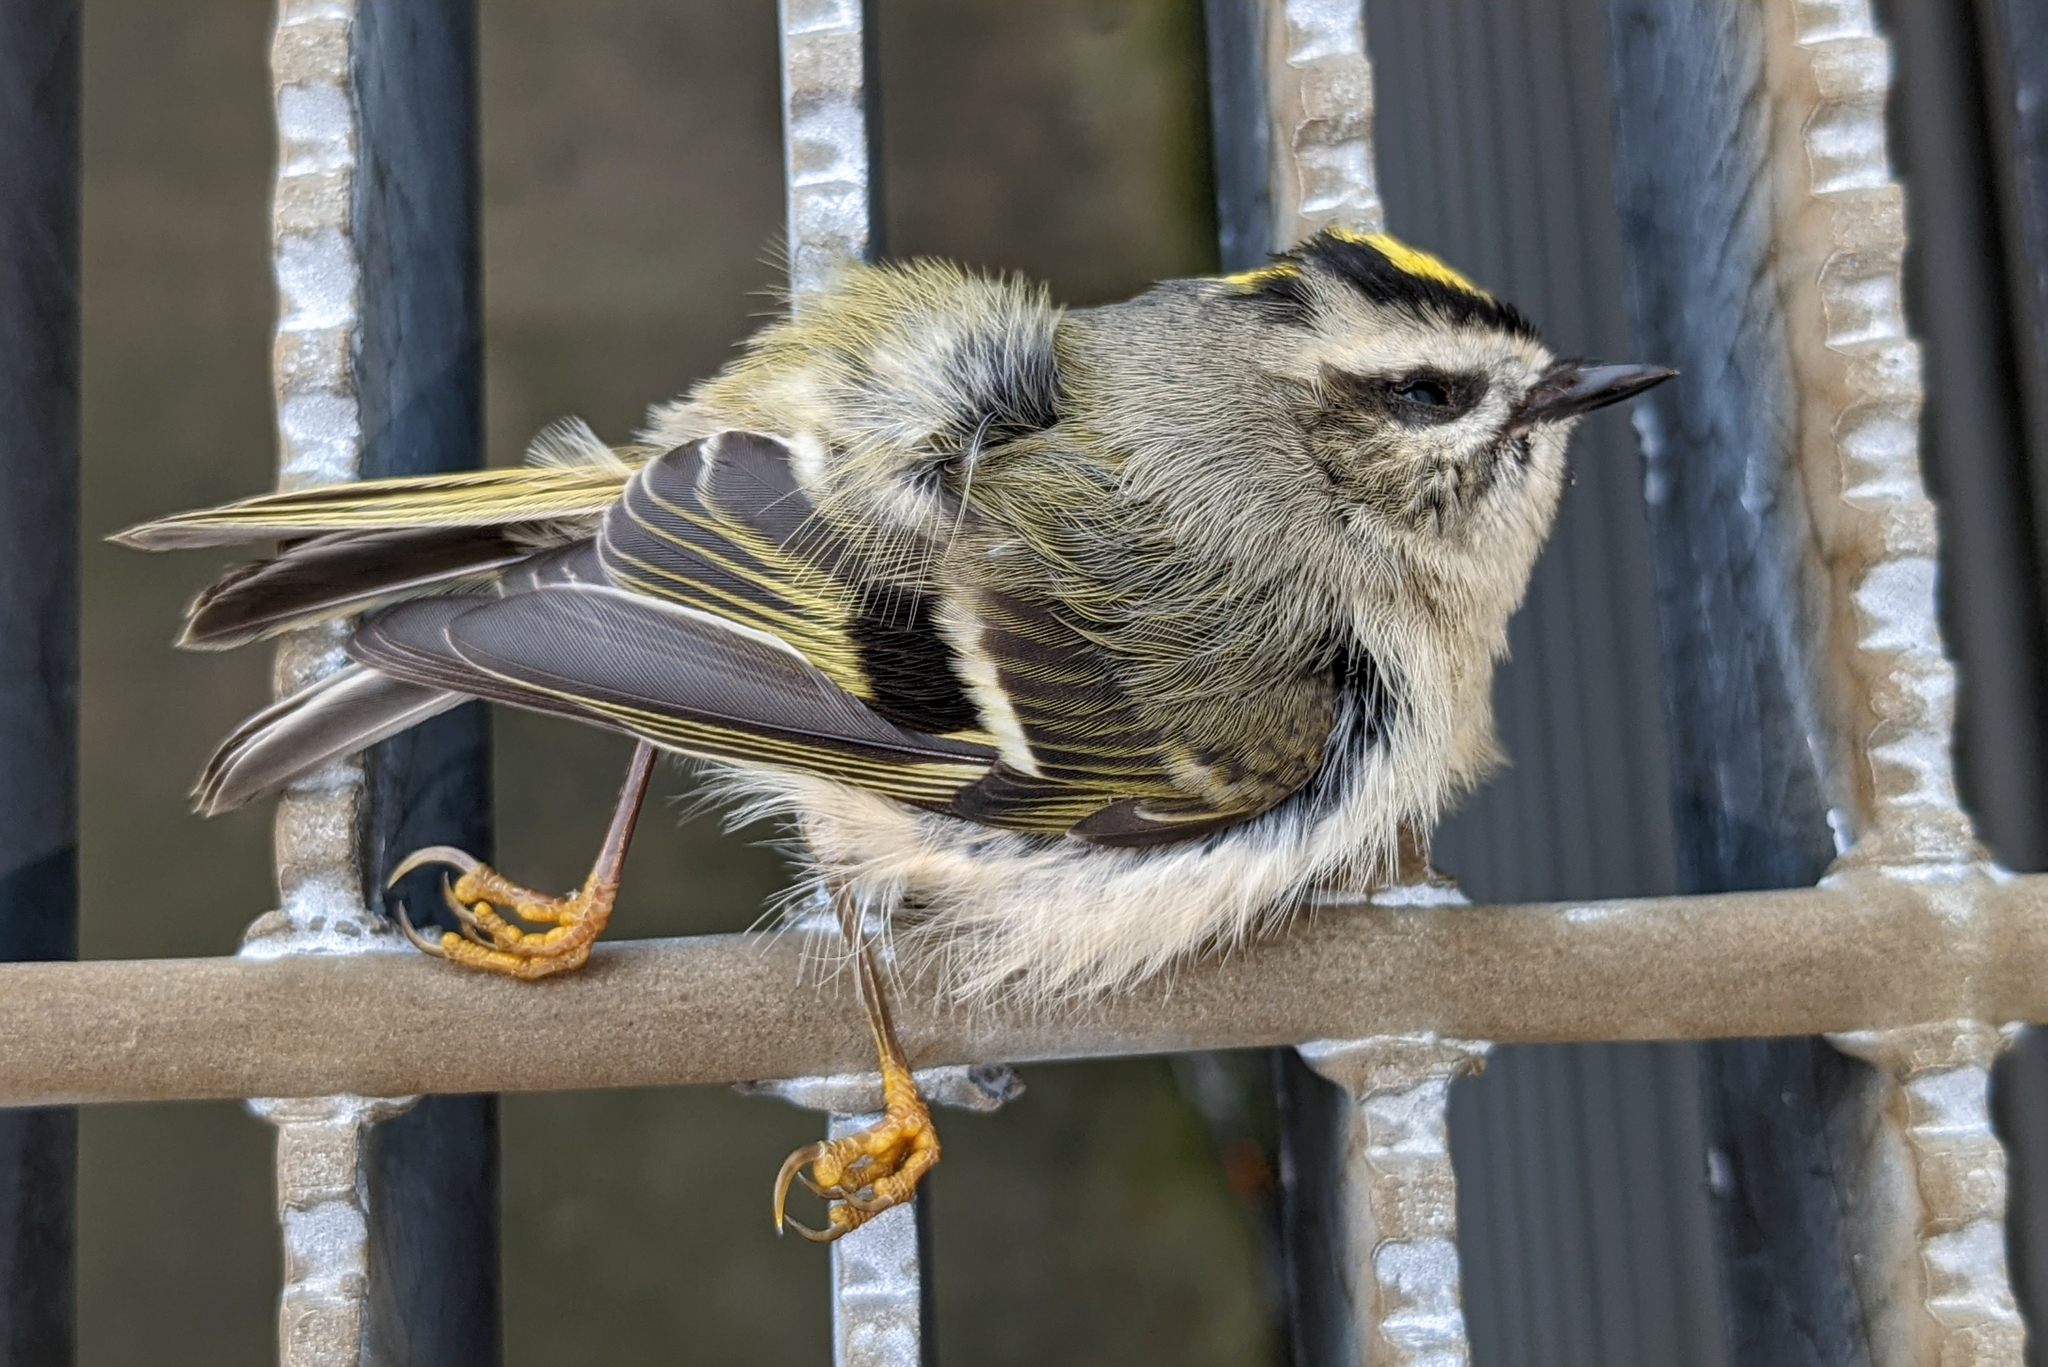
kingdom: Animalia
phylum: Chordata
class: Aves
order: Passeriformes
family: Regulidae
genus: Regulus
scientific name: Regulus satrapa
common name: Golden-crowned kinglet
